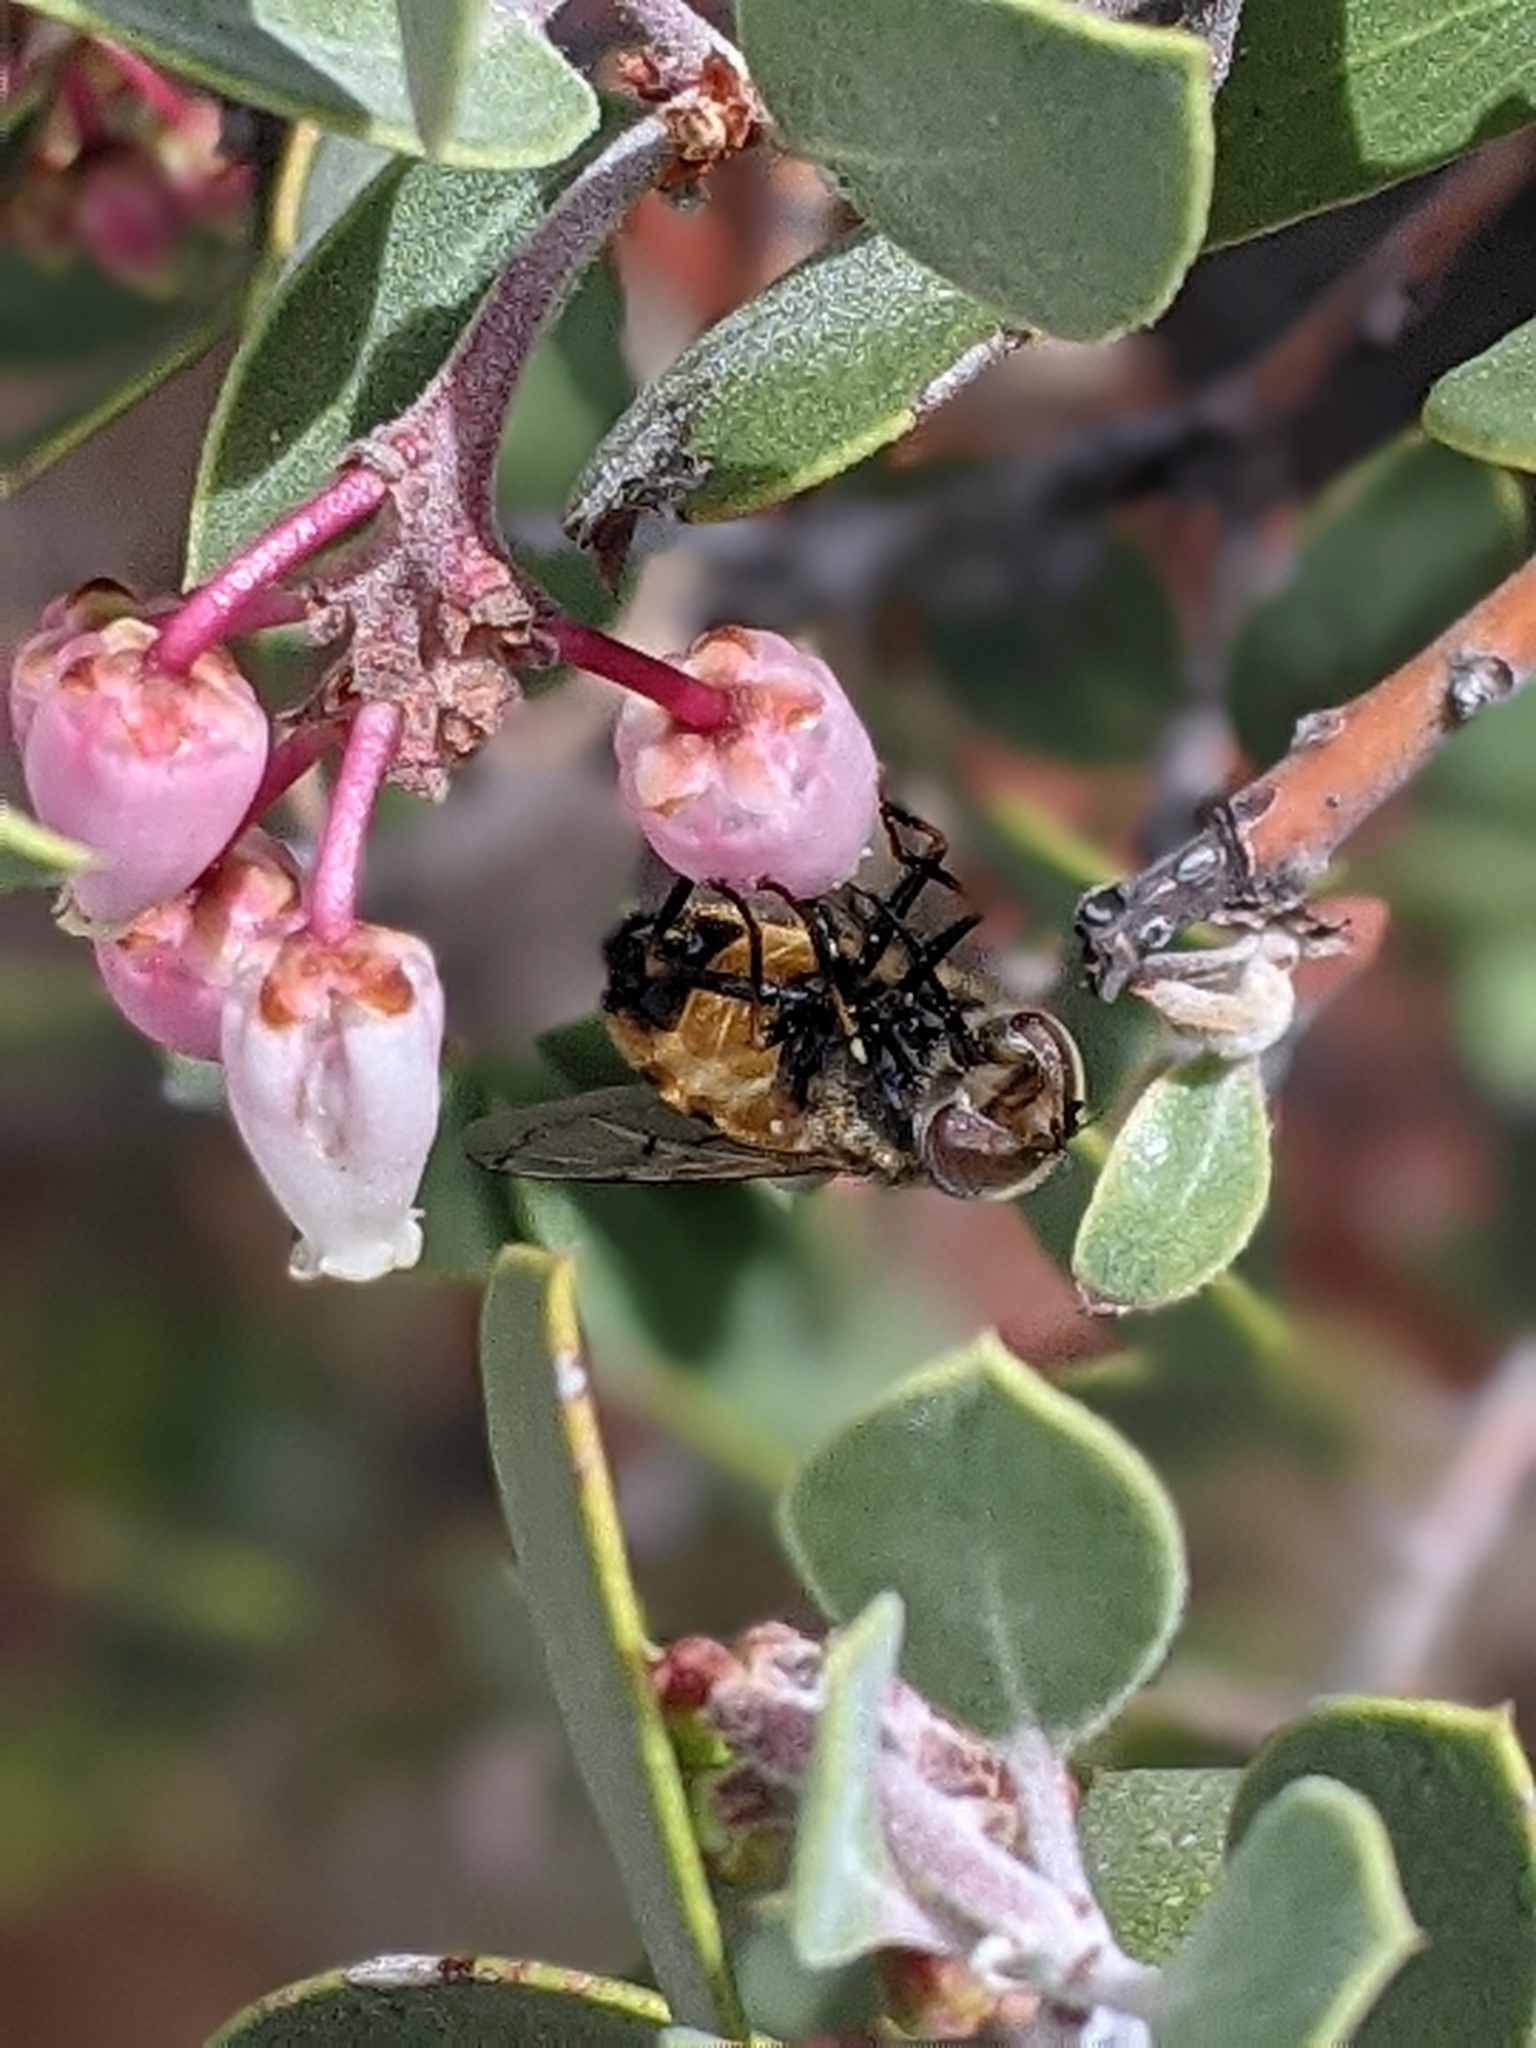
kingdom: Animalia
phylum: Arthropoda
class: Insecta
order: Diptera
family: Syrphidae
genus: Copestylum
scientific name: Copestylum haagii
